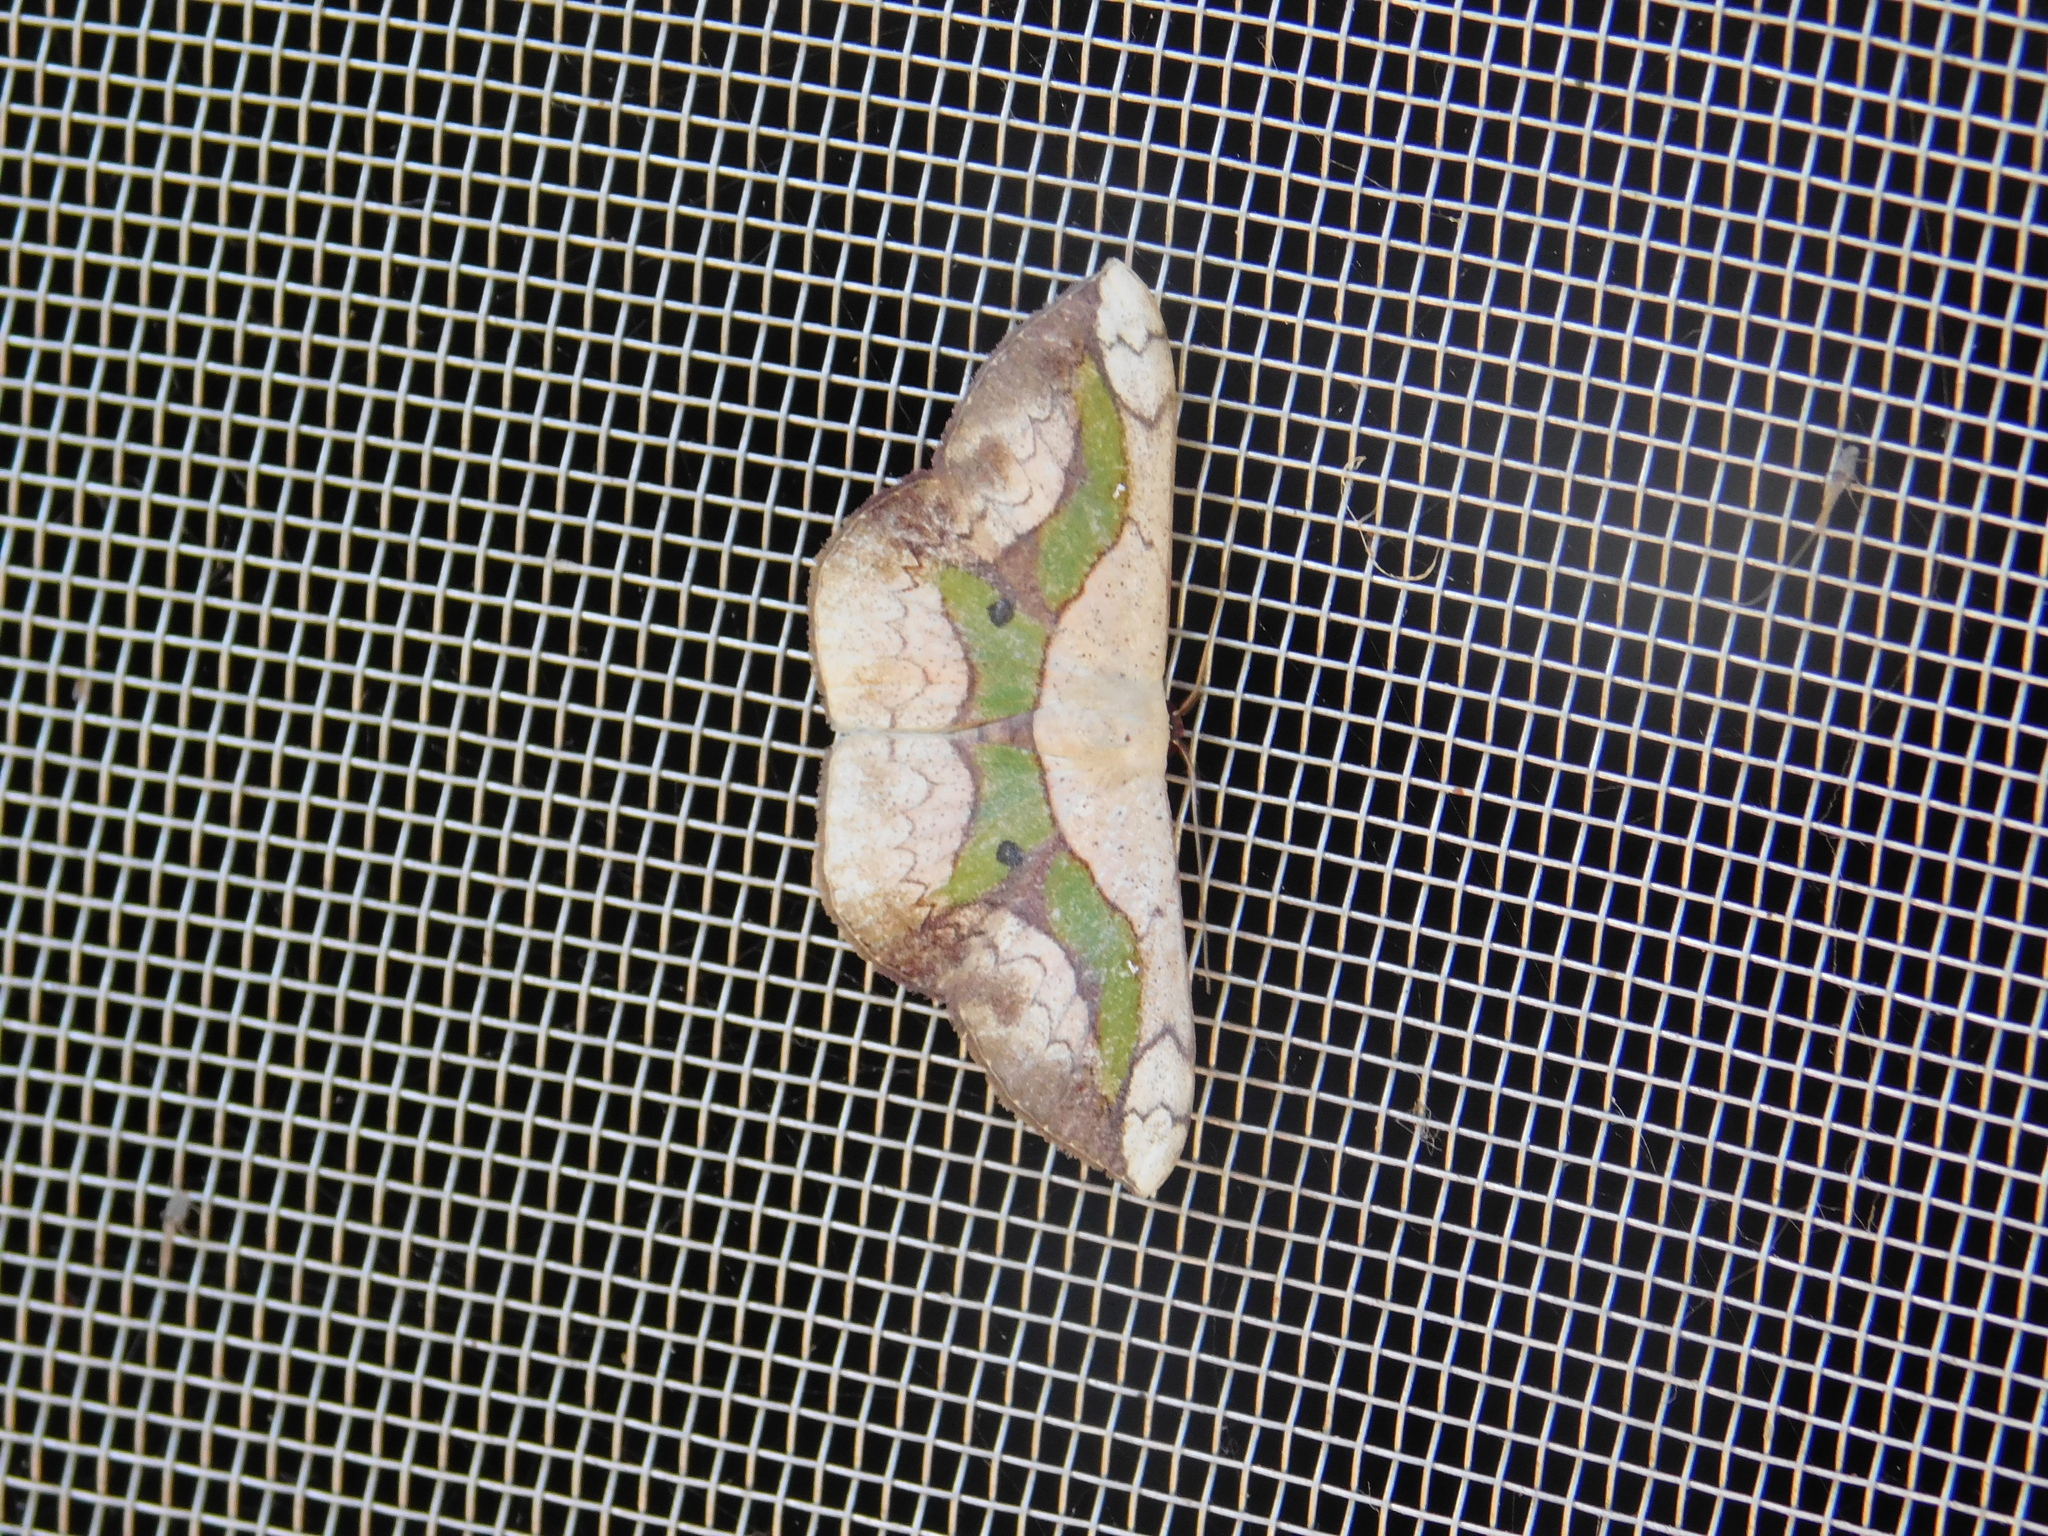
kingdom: Animalia
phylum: Arthropoda
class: Insecta
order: Lepidoptera
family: Geometridae
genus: Semaeopus
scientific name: Semaeopus nisa
